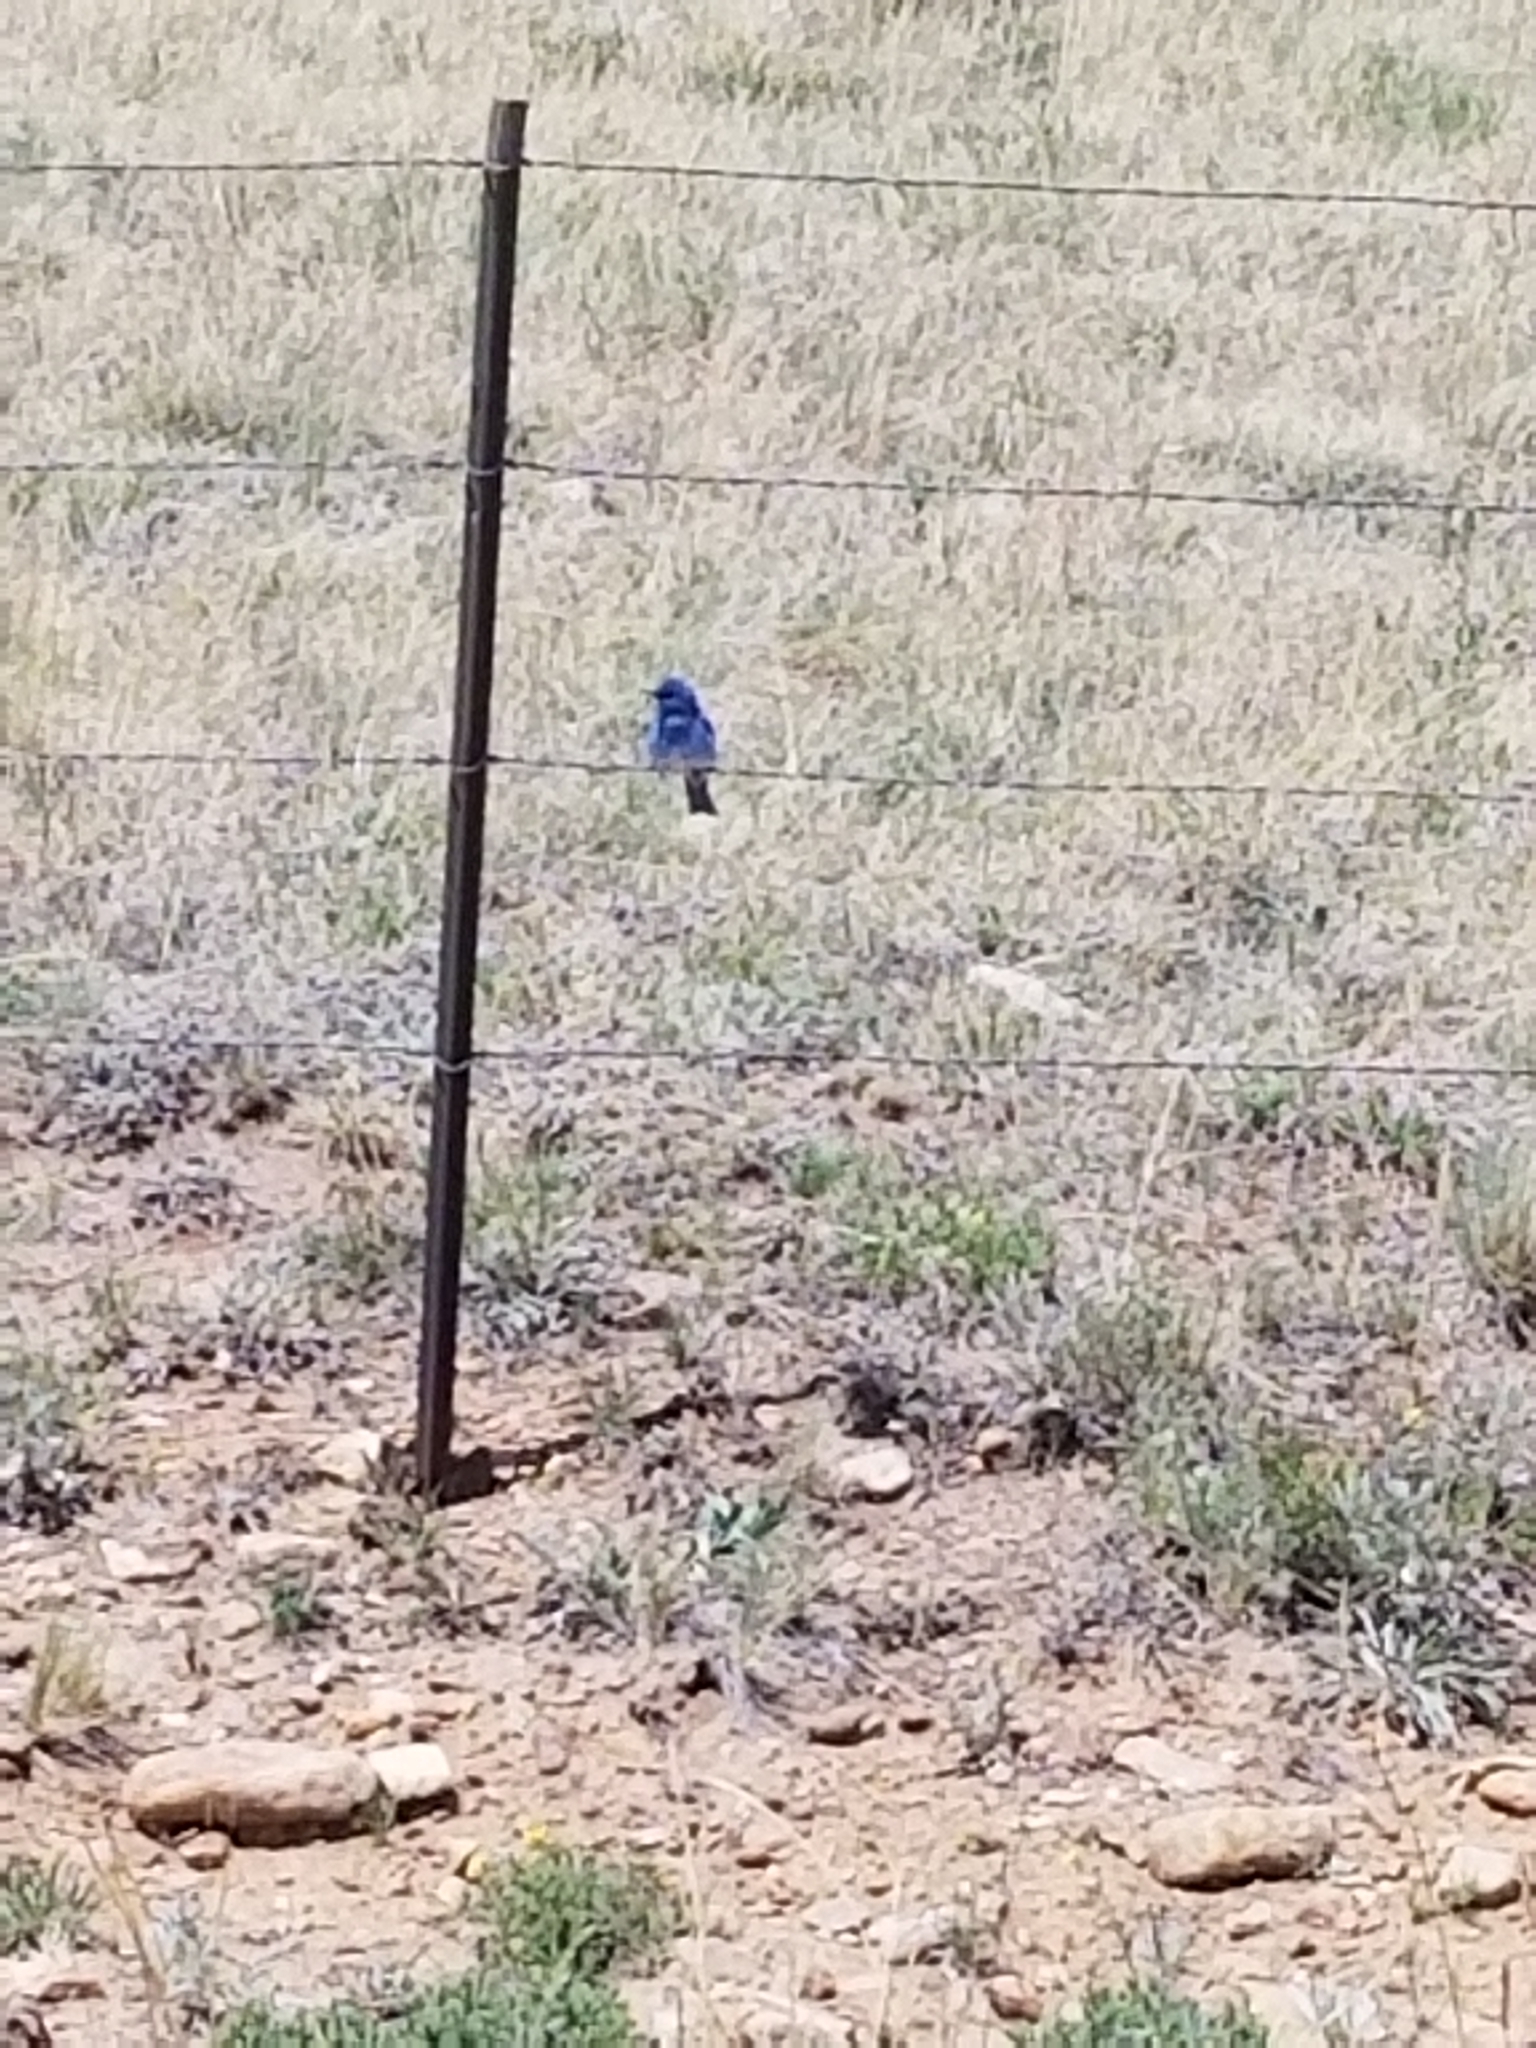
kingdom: Animalia
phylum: Chordata
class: Aves
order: Passeriformes
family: Turdidae
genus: Sialia
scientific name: Sialia currucoides
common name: Mountain bluebird
